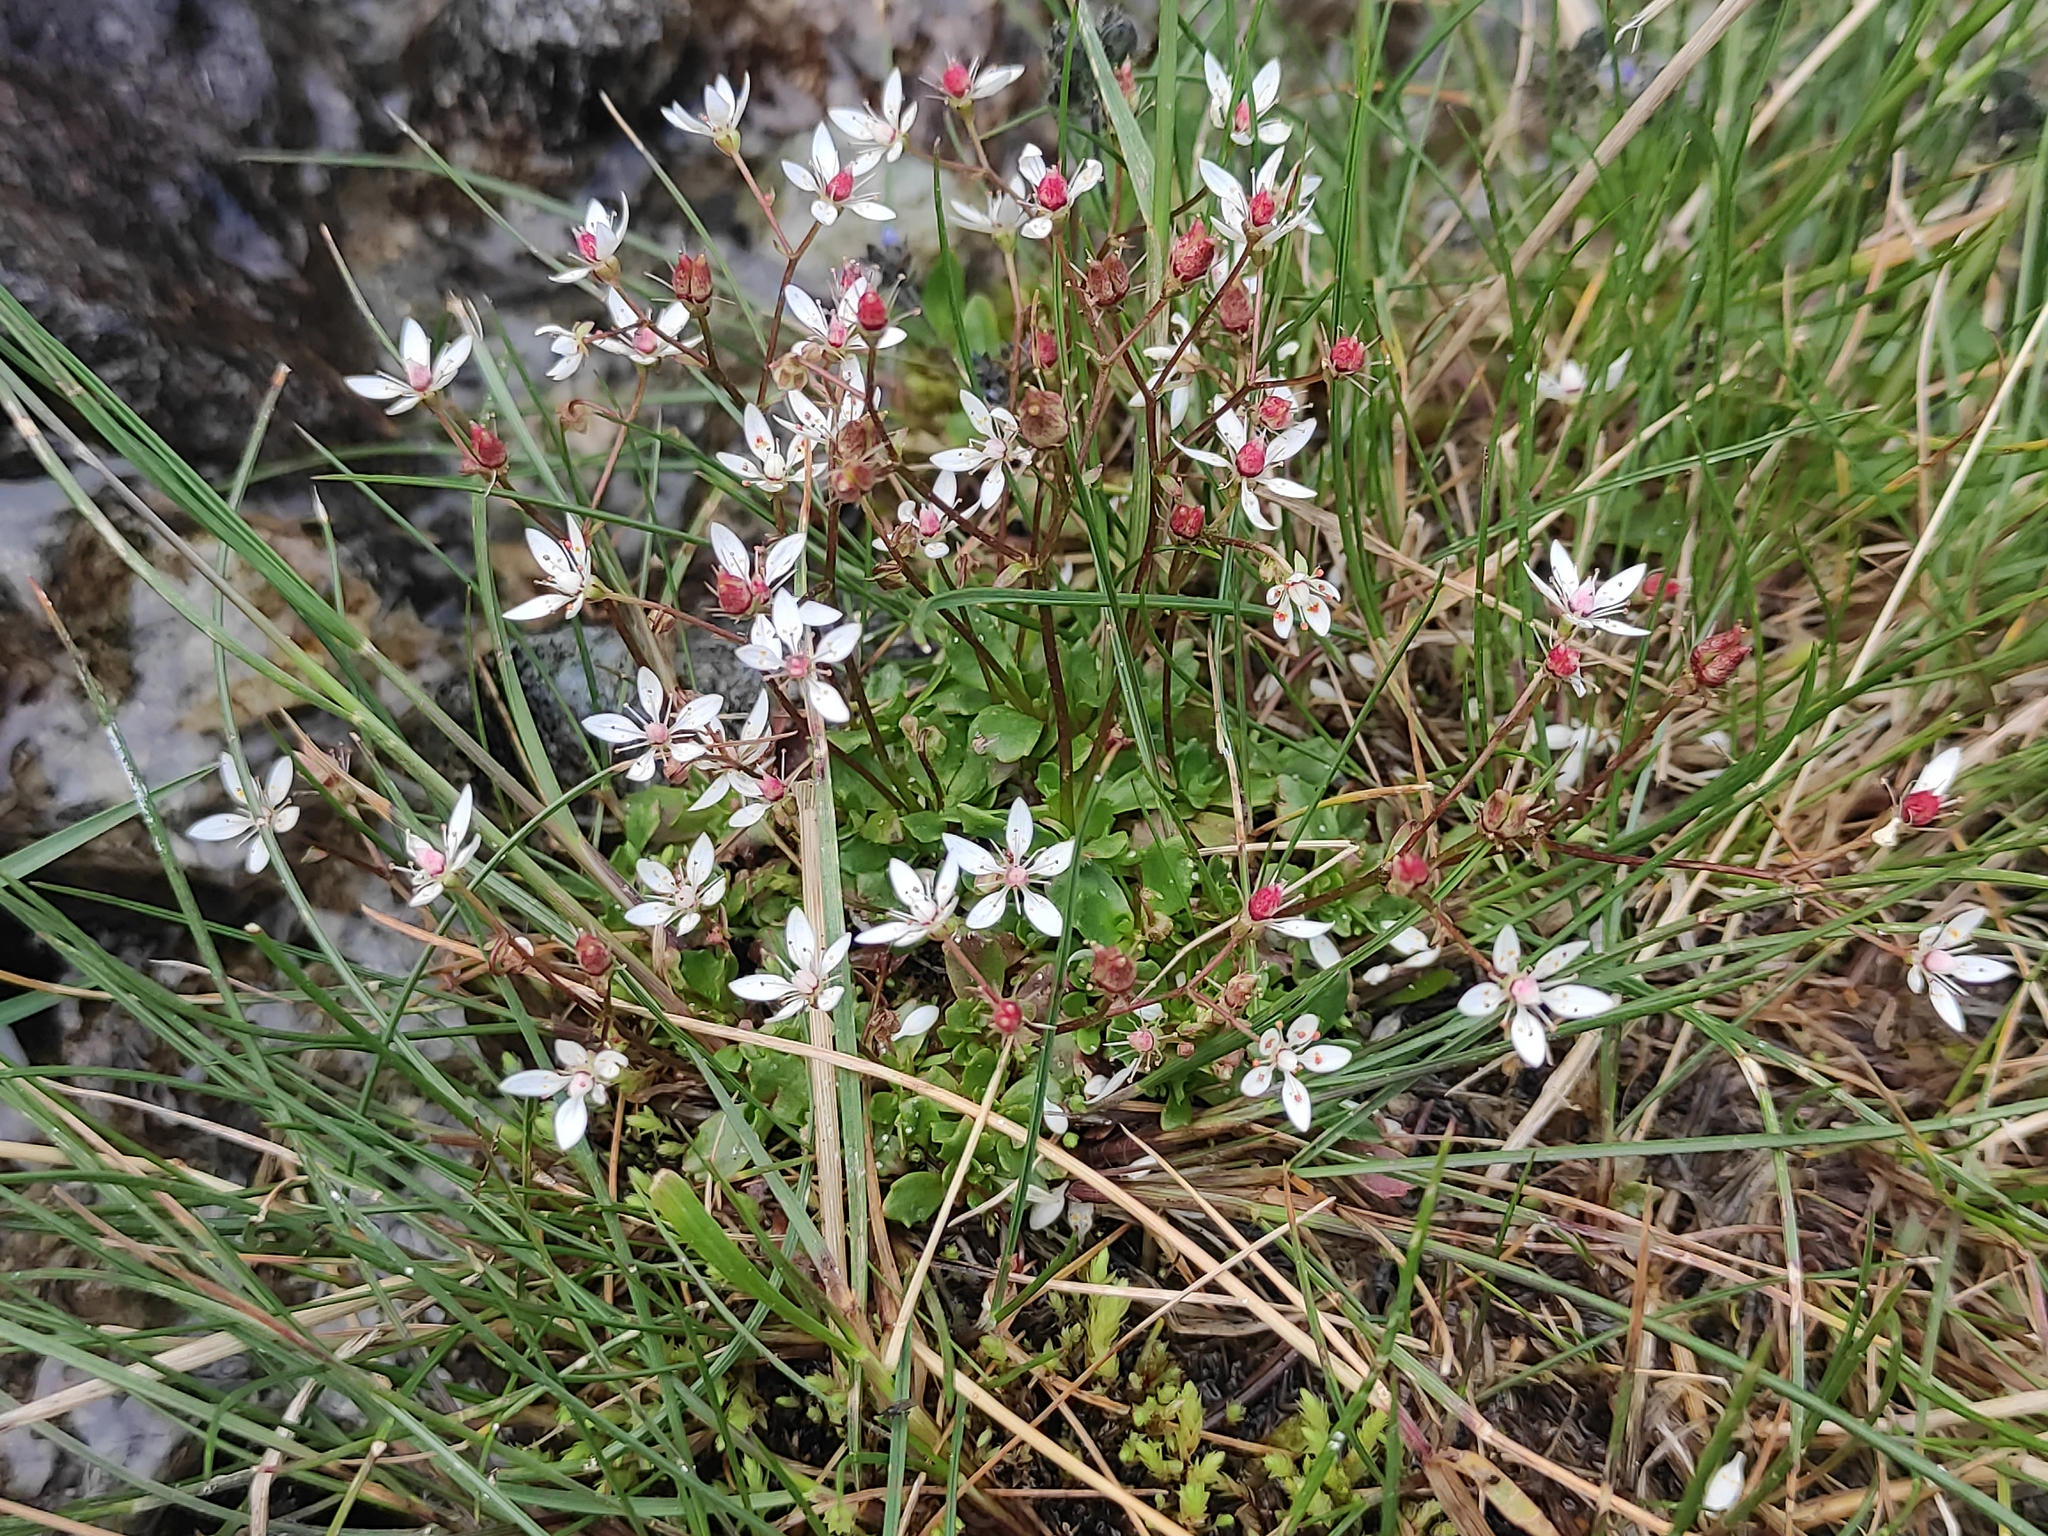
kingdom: Plantae
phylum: Tracheophyta
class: Magnoliopsida
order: Saxifragales
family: Saxifragaceae
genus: Micranthes
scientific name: Micranthes stellaris
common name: Starry saxifrage
